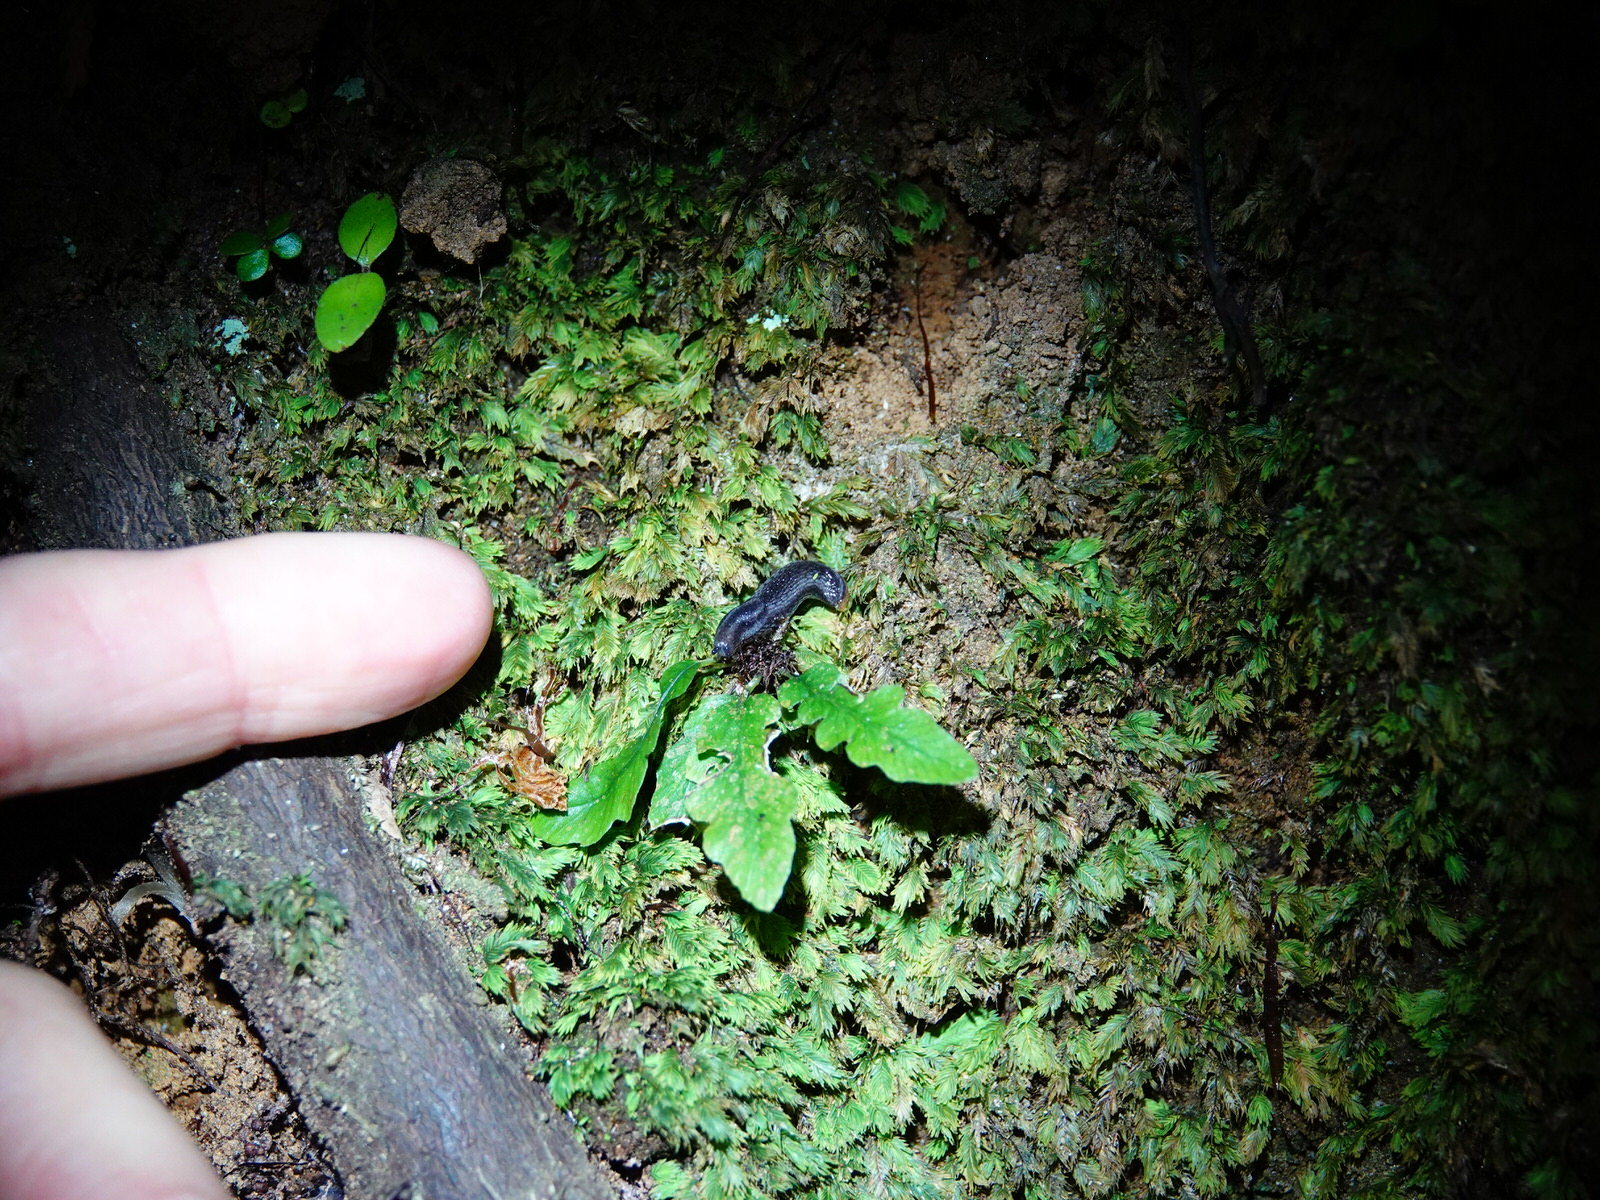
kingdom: Animalia
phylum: Mollusca
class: Gastropoda
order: Stylommatophora
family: Arionidae
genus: Kobeltia
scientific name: Kobeltia
